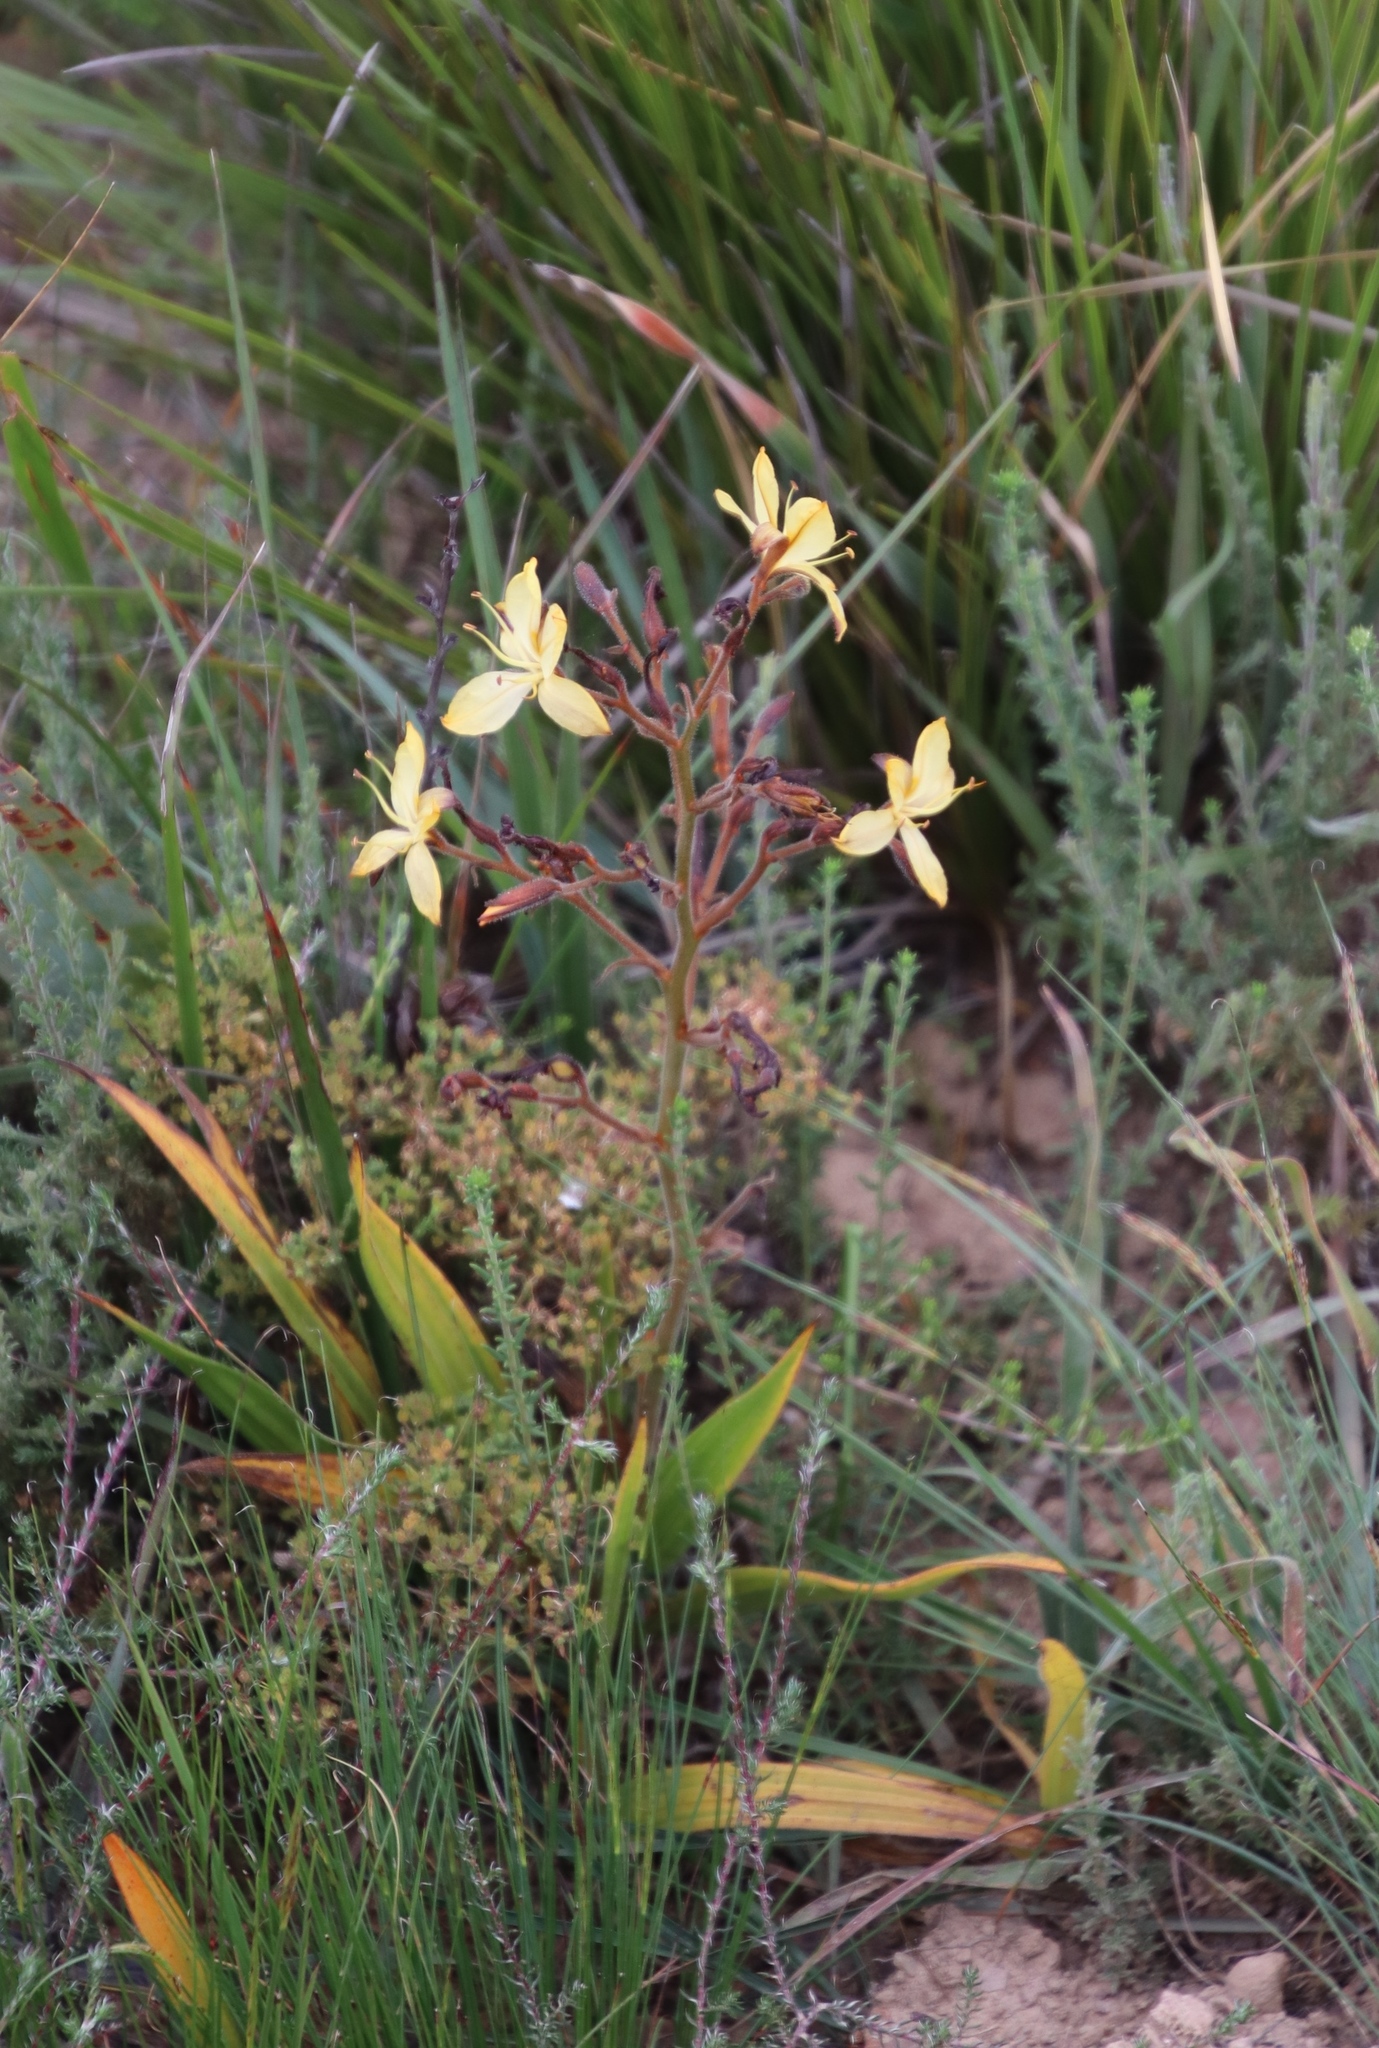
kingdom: Plantae
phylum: Tracheophyta
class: Liliopsida
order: Commelinales
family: Haemodoraceae
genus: Wachendorfia
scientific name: Wachendorfia paniculata
